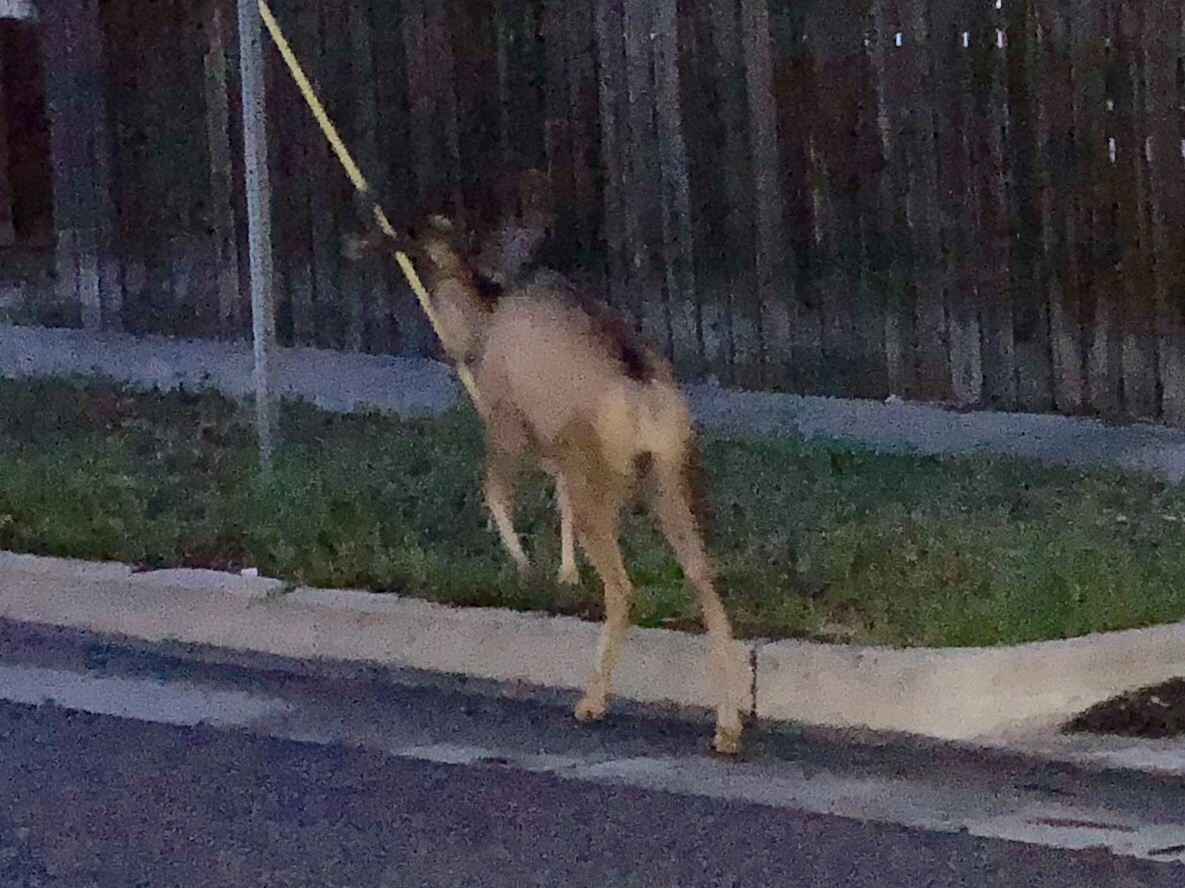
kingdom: Animalia
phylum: Chordata
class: Mammalia
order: Artiodactyla
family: Cervidae
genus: Odocoileus
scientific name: Odocoileus hemionus
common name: Mule deer
